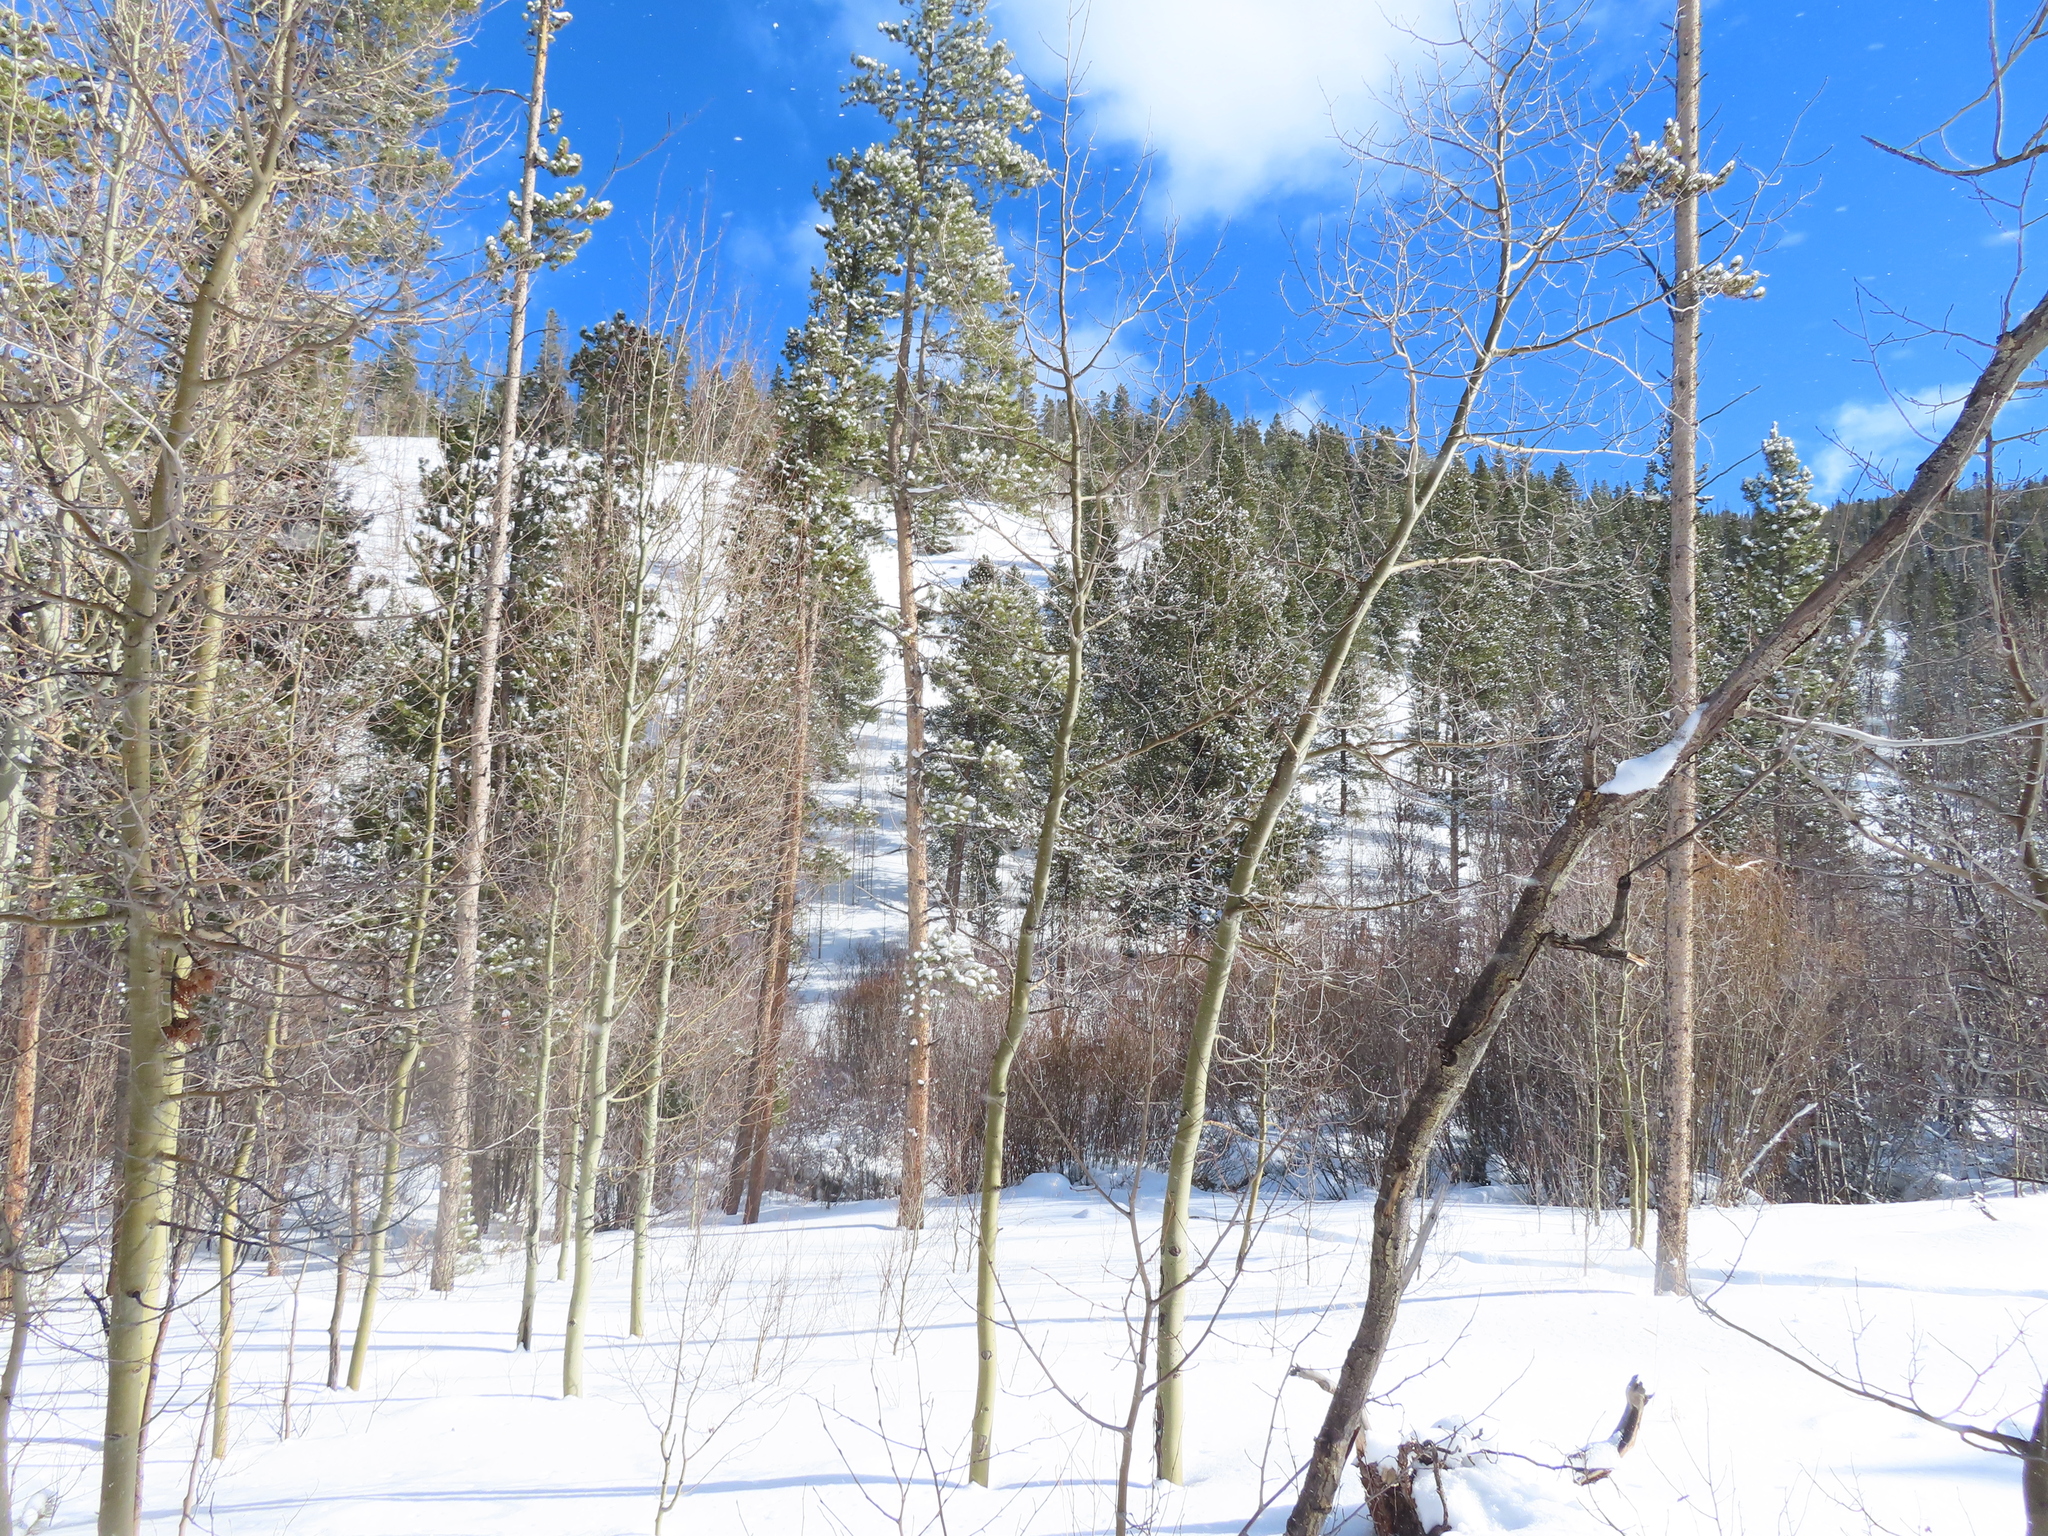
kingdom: Plantae
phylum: Tracheophyta
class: Magnoliopsida
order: Malpighiales
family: Salicaceae
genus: Populus
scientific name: Populus tremuloides
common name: Quaking aspen
